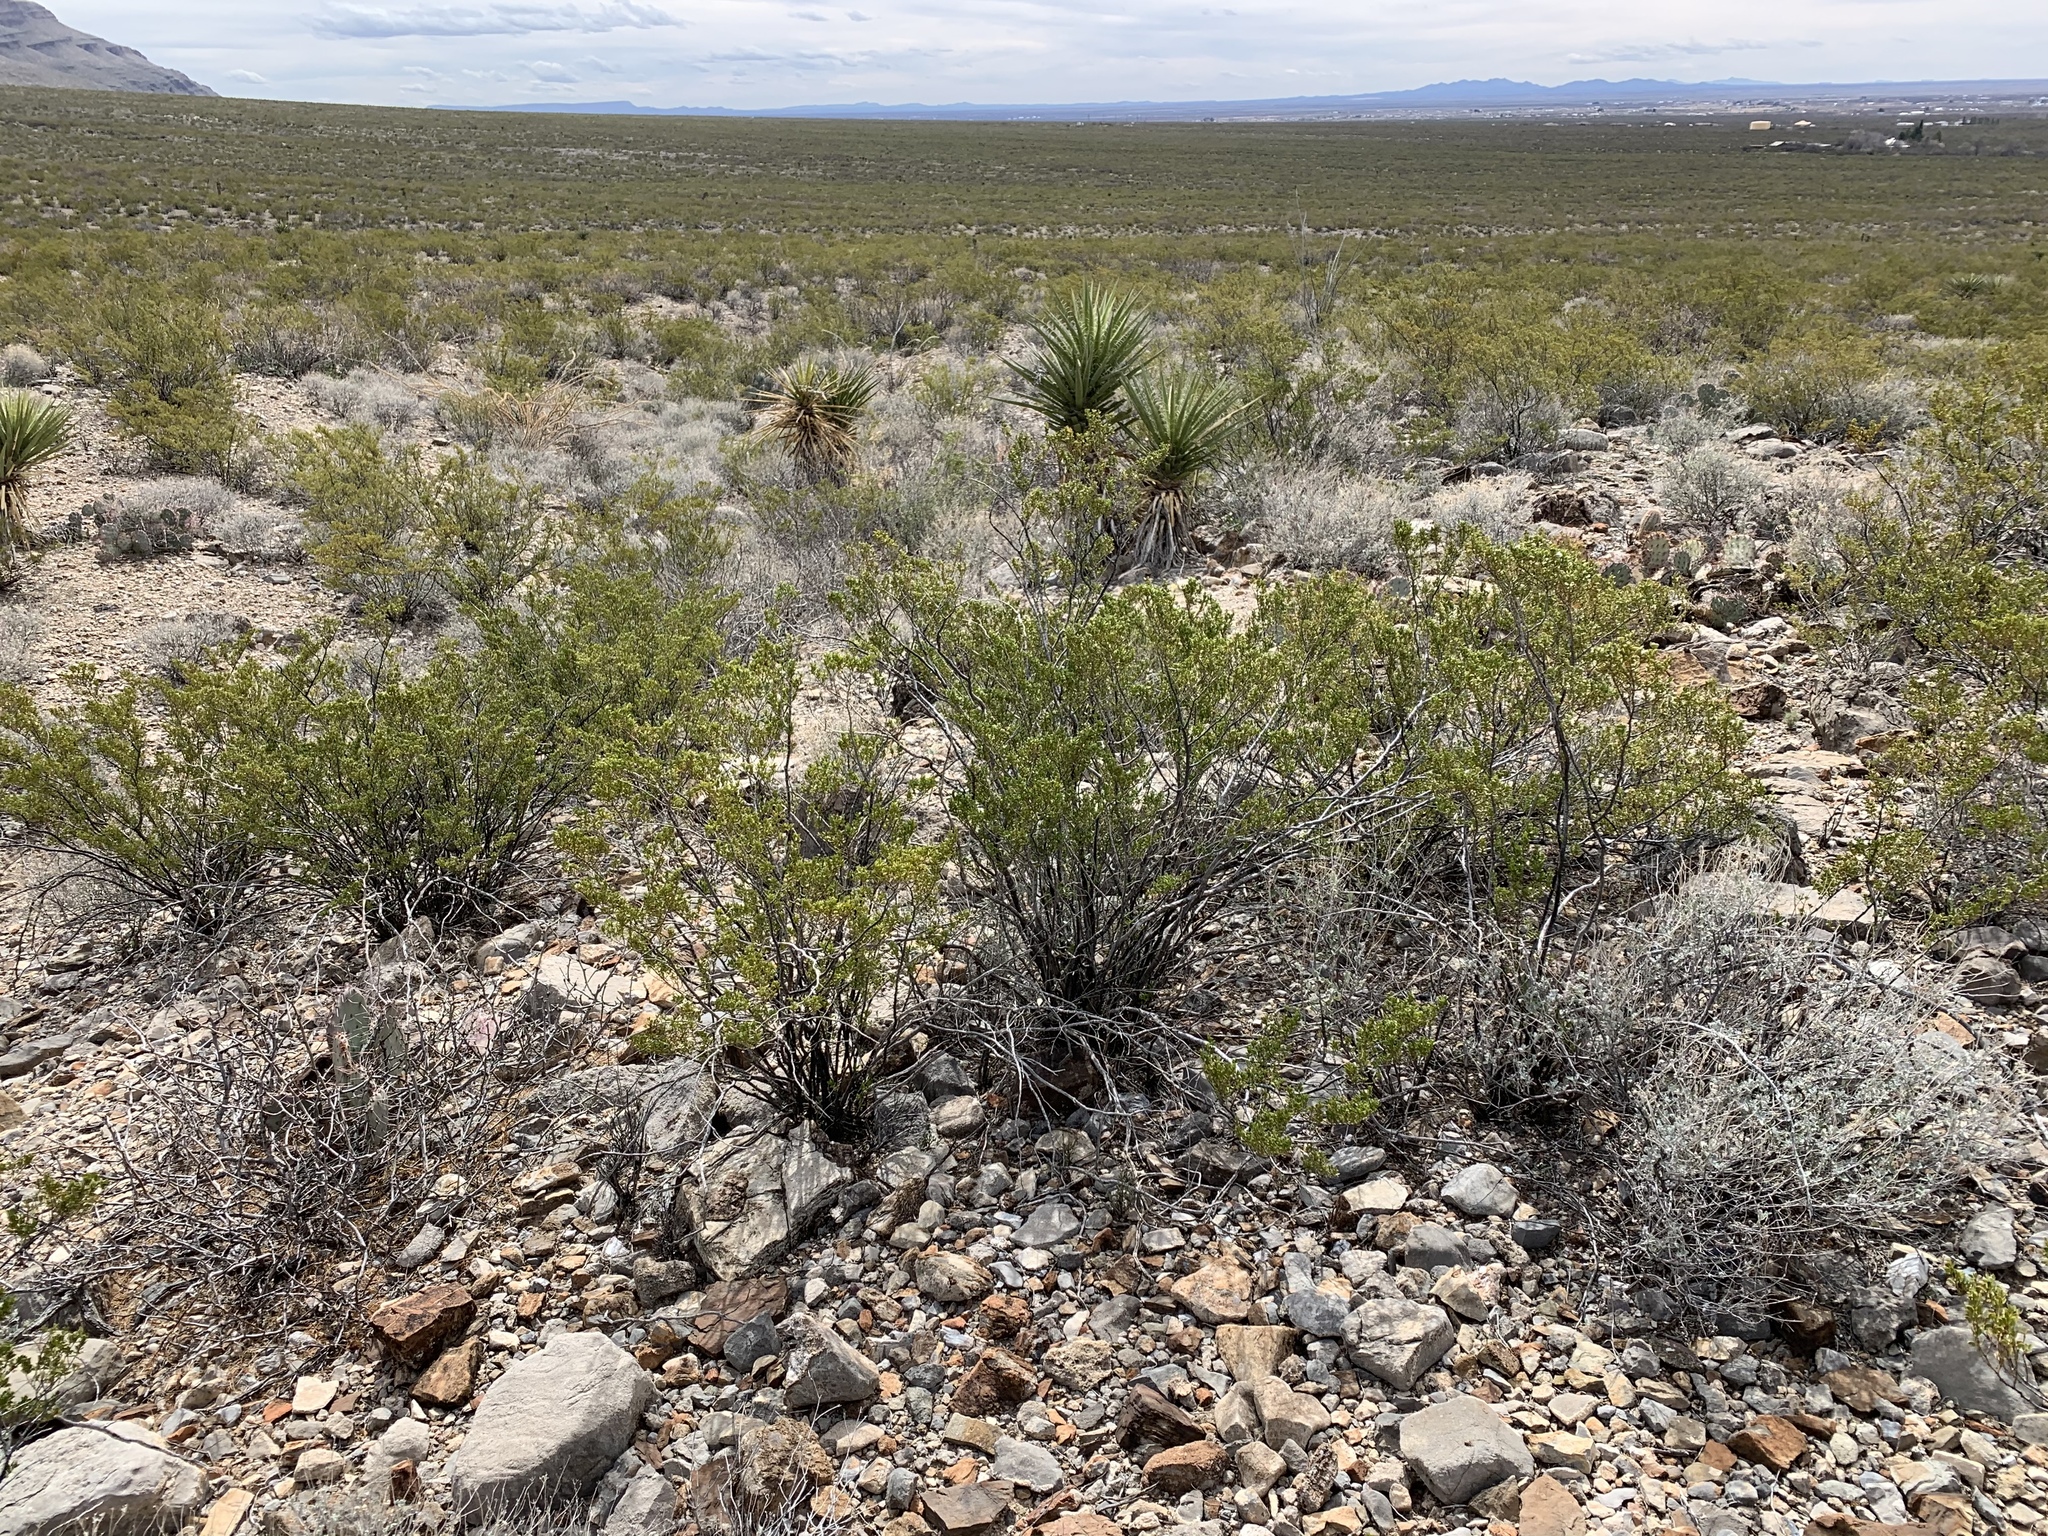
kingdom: Plantae
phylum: Tracheophyta
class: Magnoliopsida
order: Zygophyllales
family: Zygophyllaceae
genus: Larrea
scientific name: Larrea tridentata
